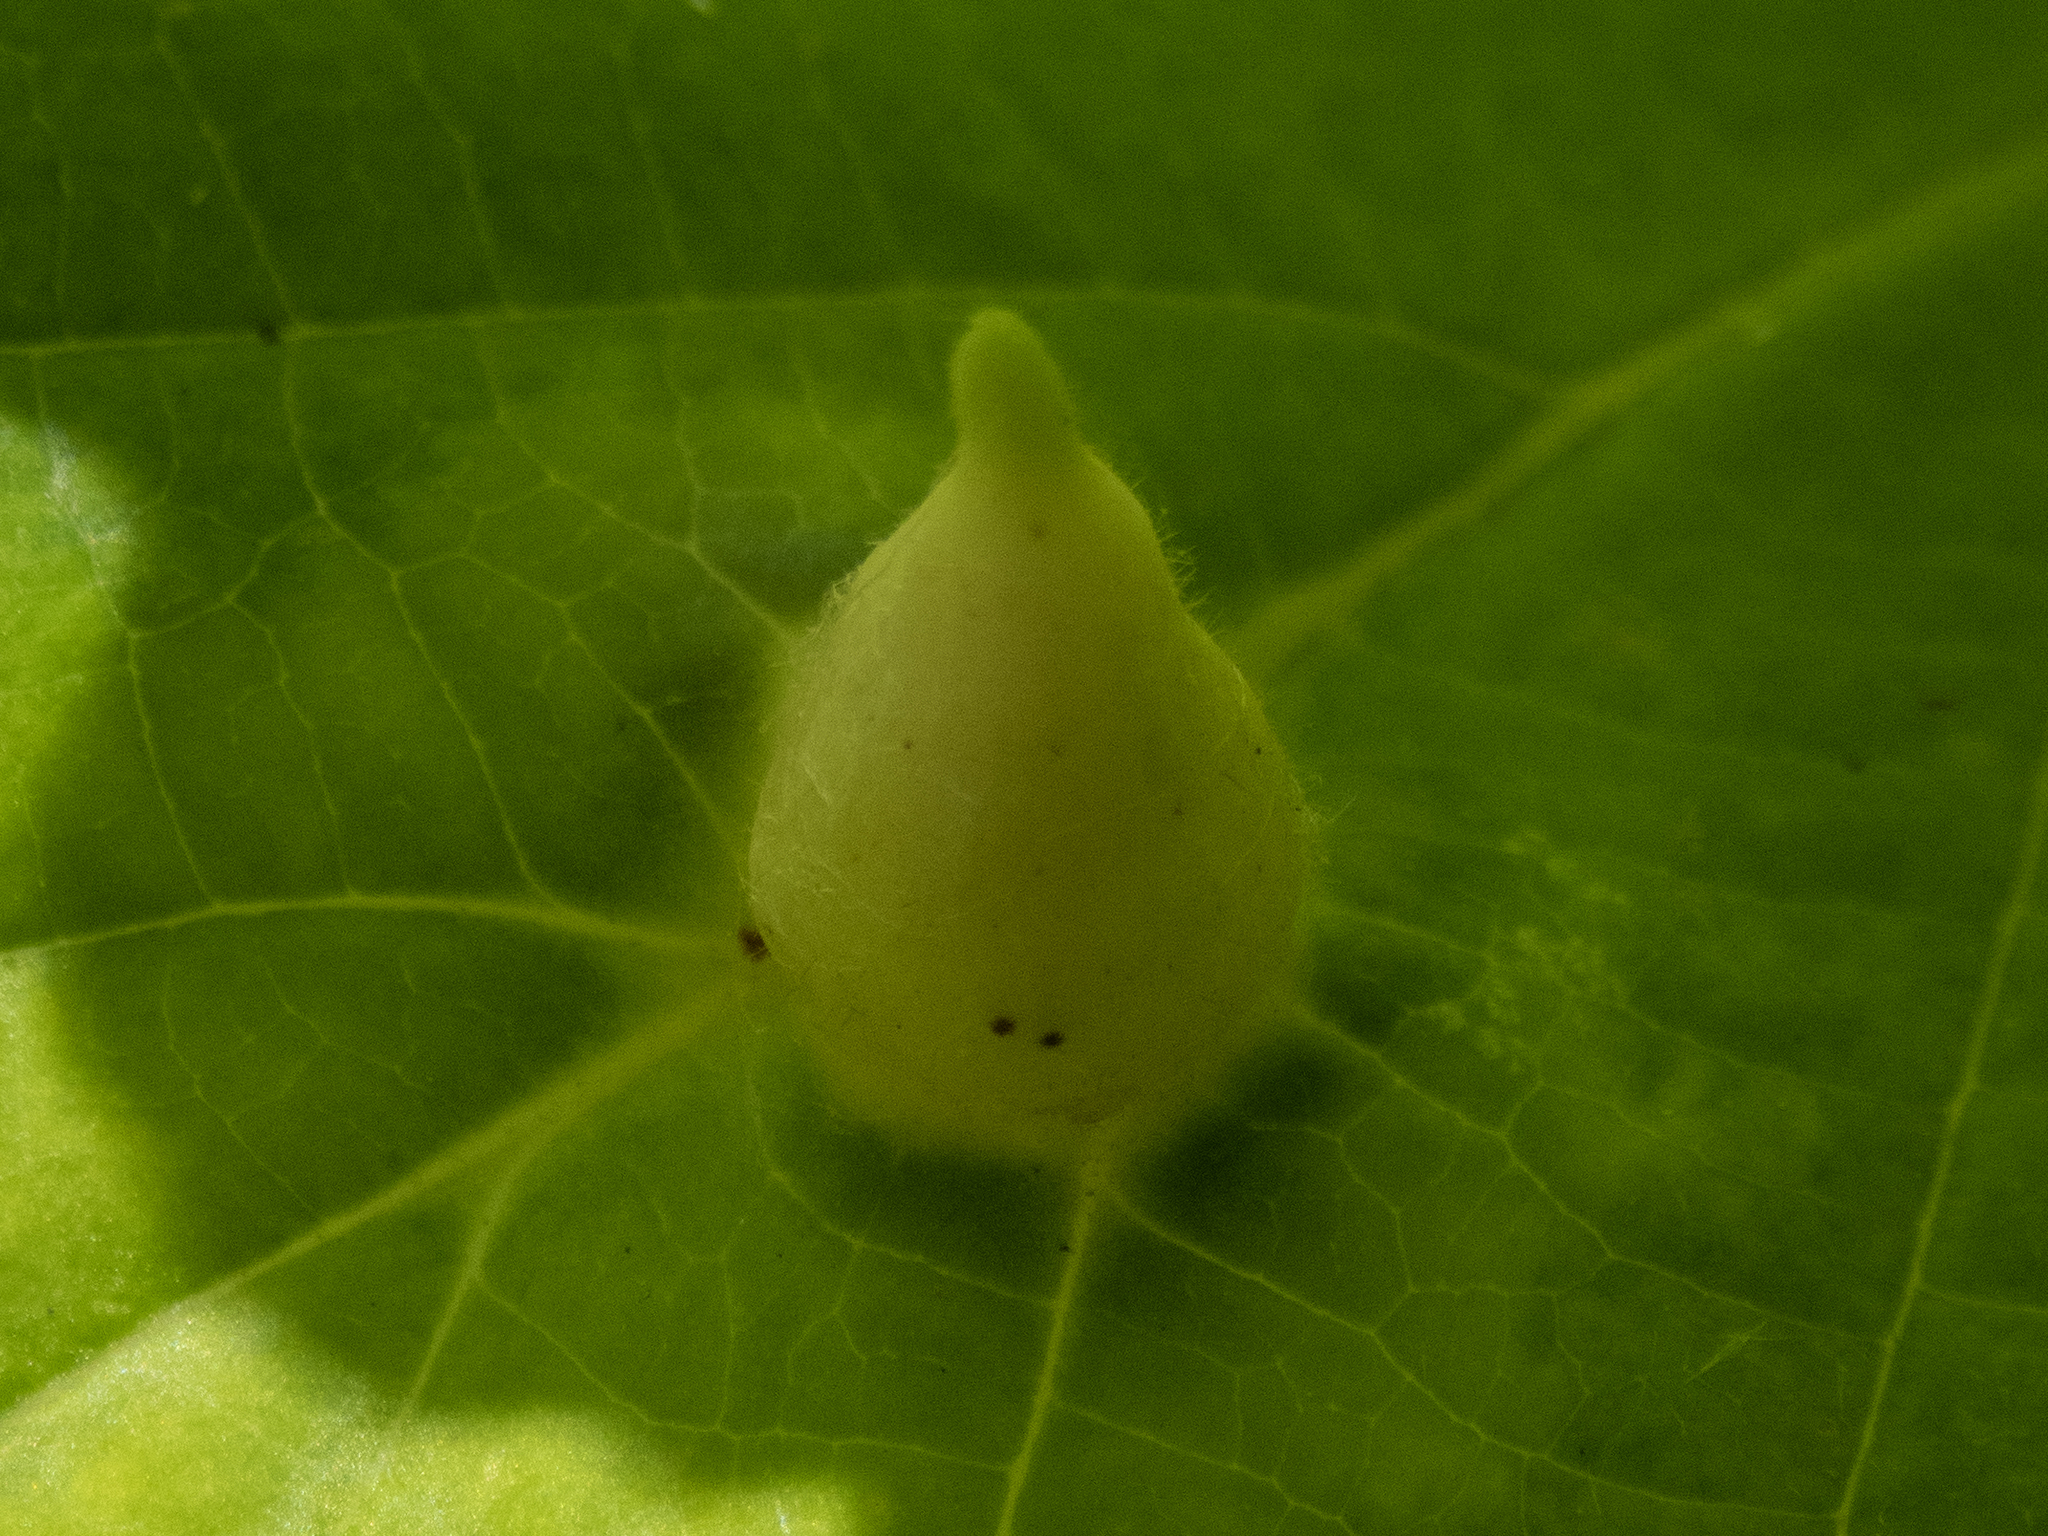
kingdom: Animalia
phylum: Arthropoda
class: Insecta
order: Hemiptera
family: Aphididae
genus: Hormaphis
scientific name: Hormaphis hamamelidis
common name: Witch-hazel cone gall aphid
